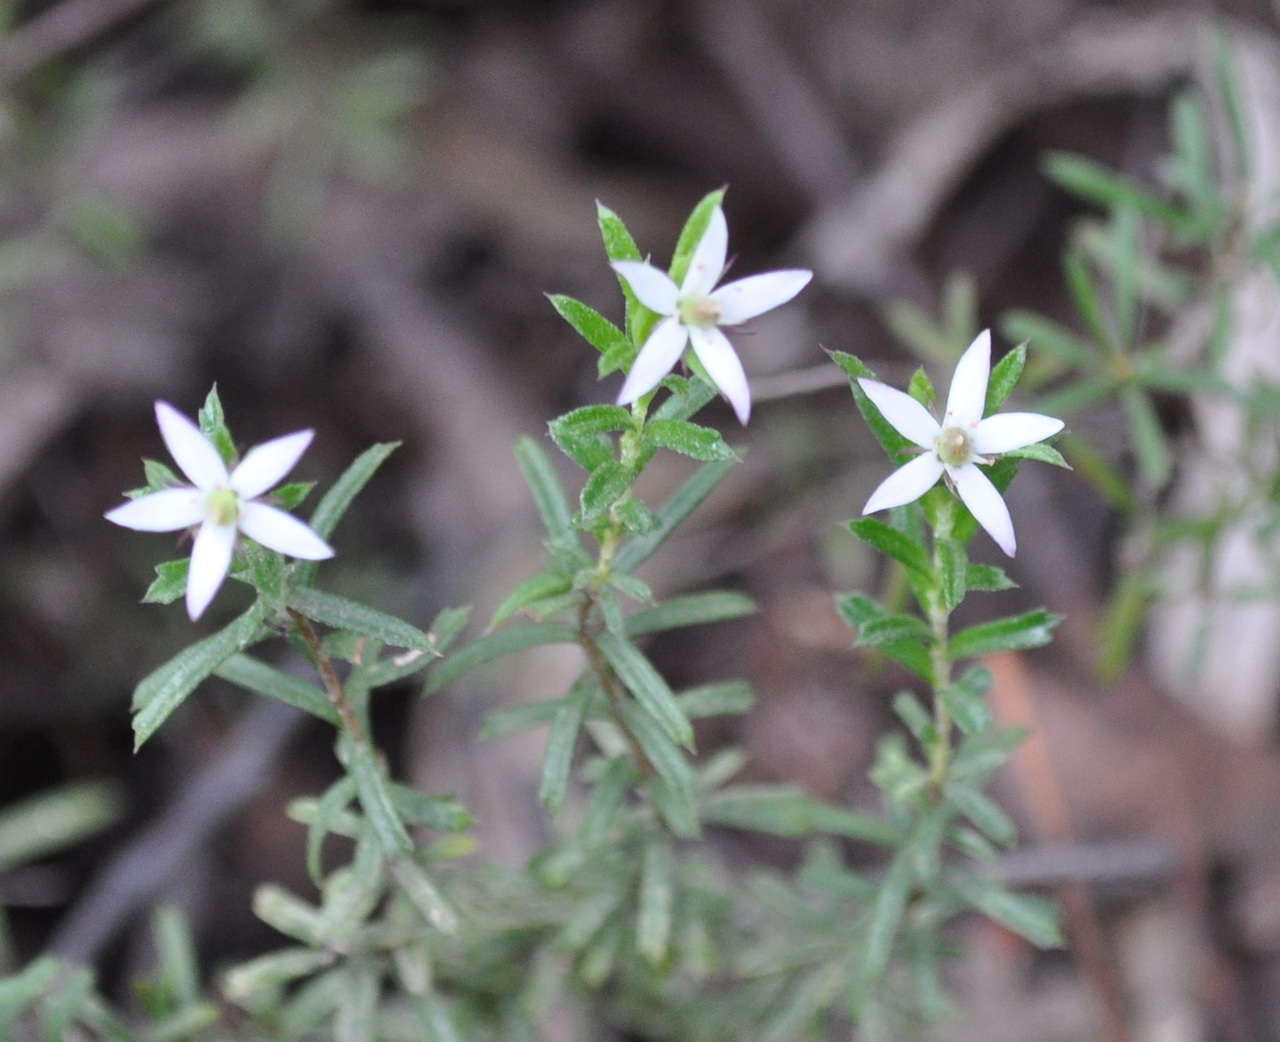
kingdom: Plantae
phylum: Tracheophyta
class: Magnoliopsida
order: Apiales
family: Pittosporaceae
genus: Rhytidosporum
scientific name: Rhytidosporum procumbens
